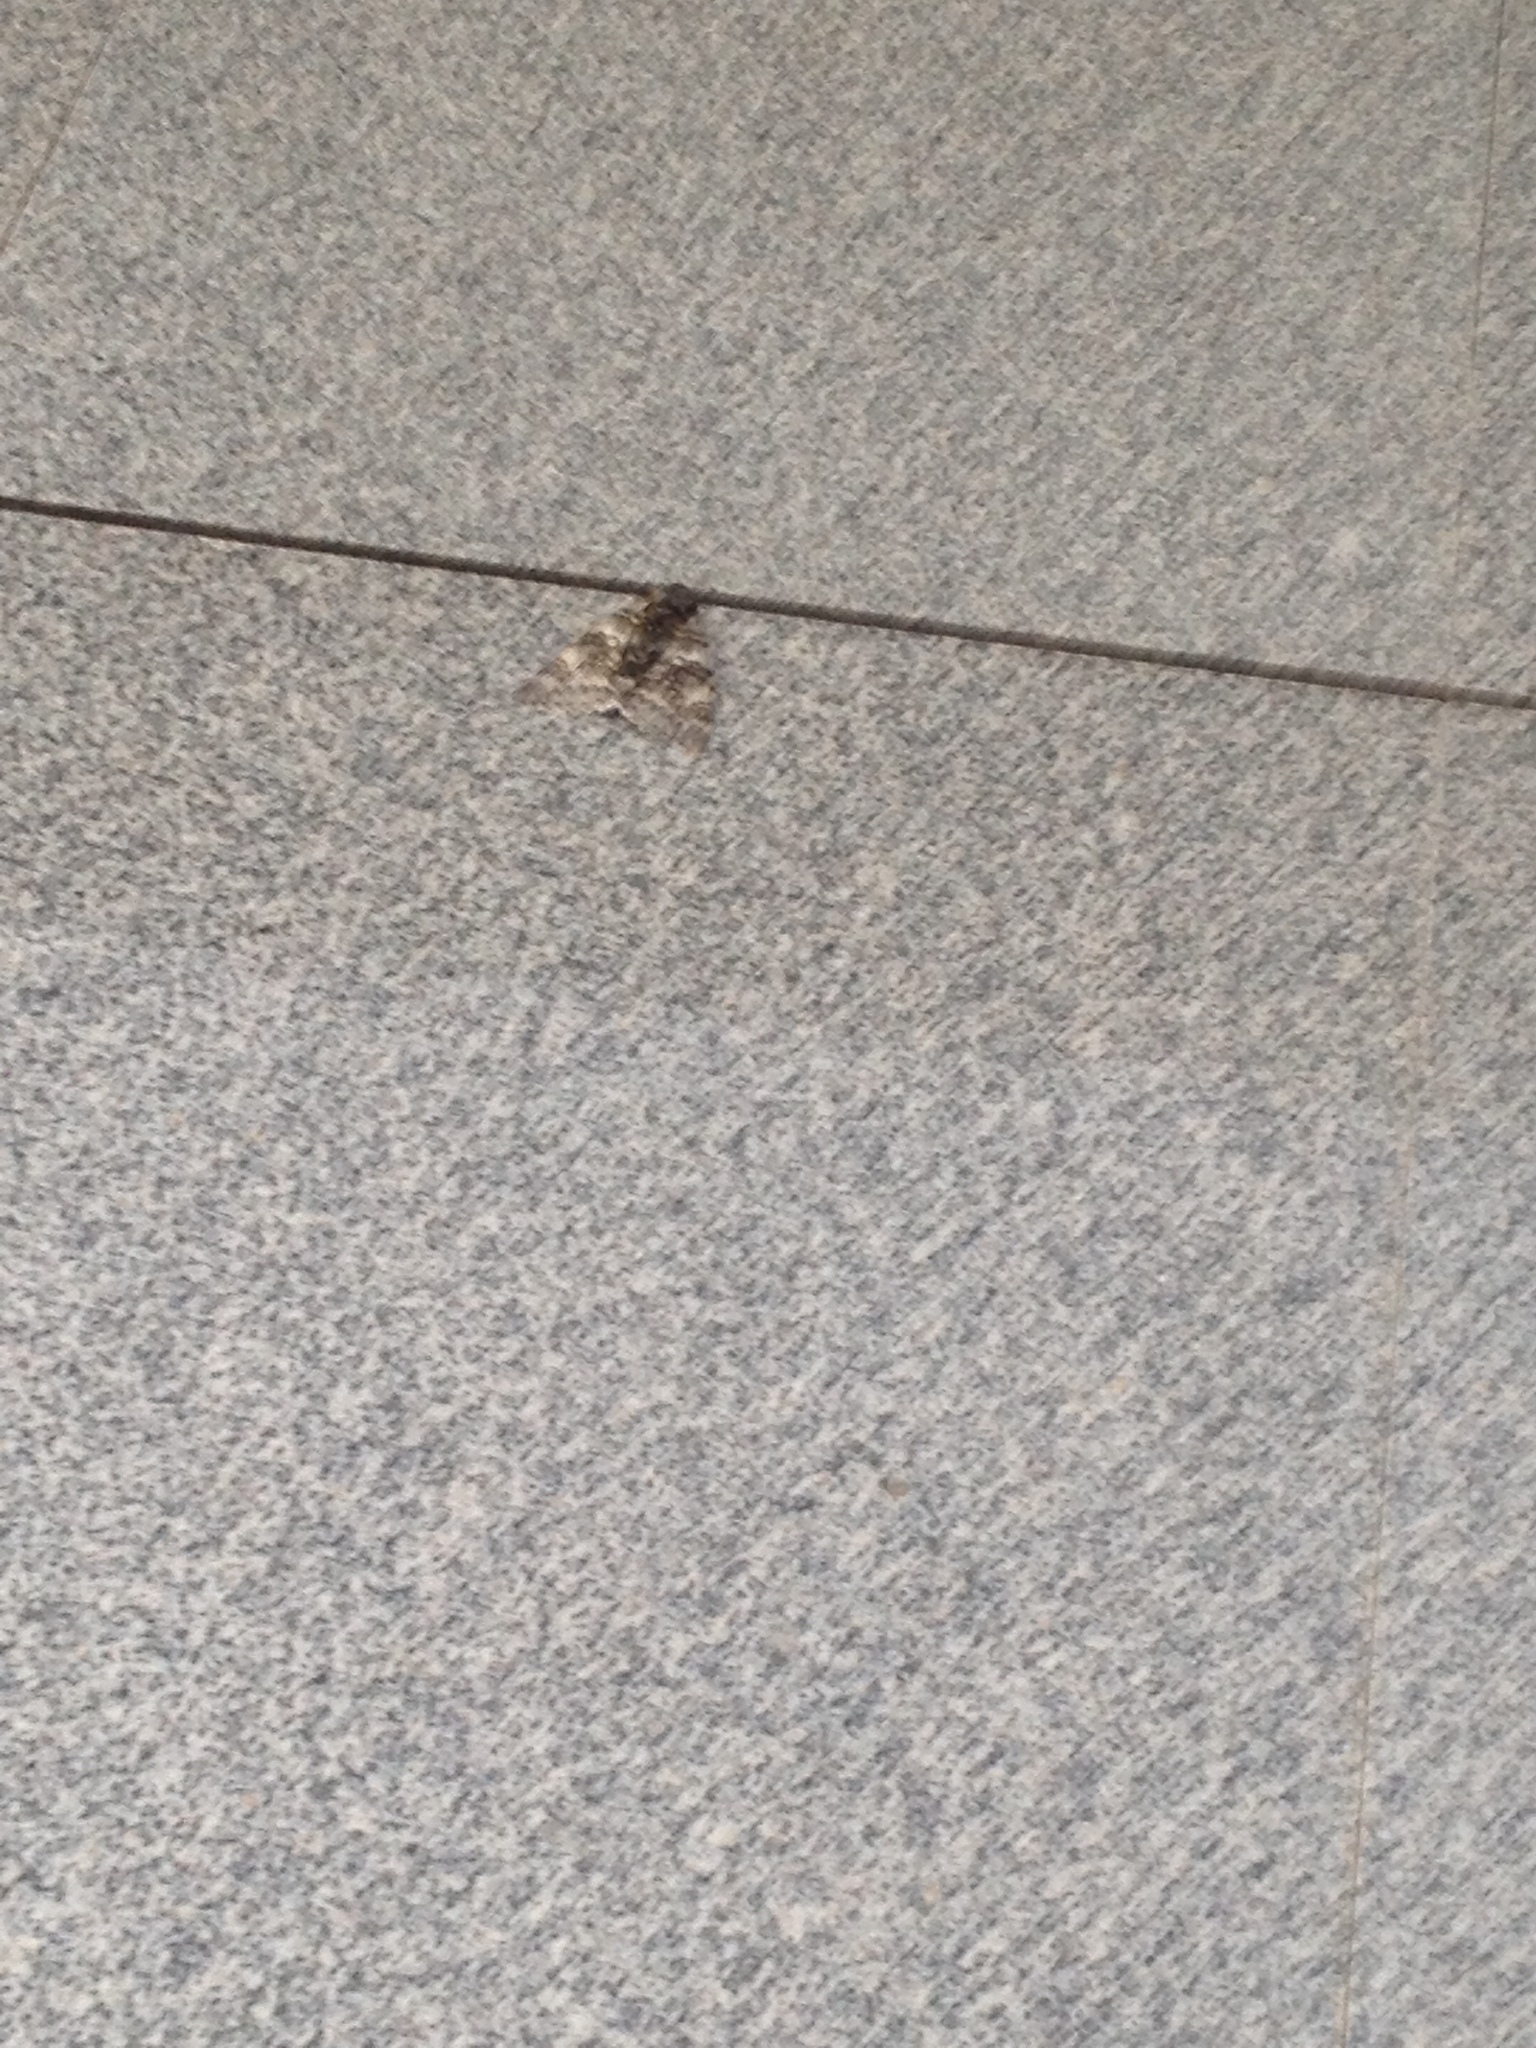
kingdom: Animalia
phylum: Arthropoda
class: Insecta
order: Lepidoptera
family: Erebidae
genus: Catocala
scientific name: Catocala fraxini
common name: Clifden nonpareil
